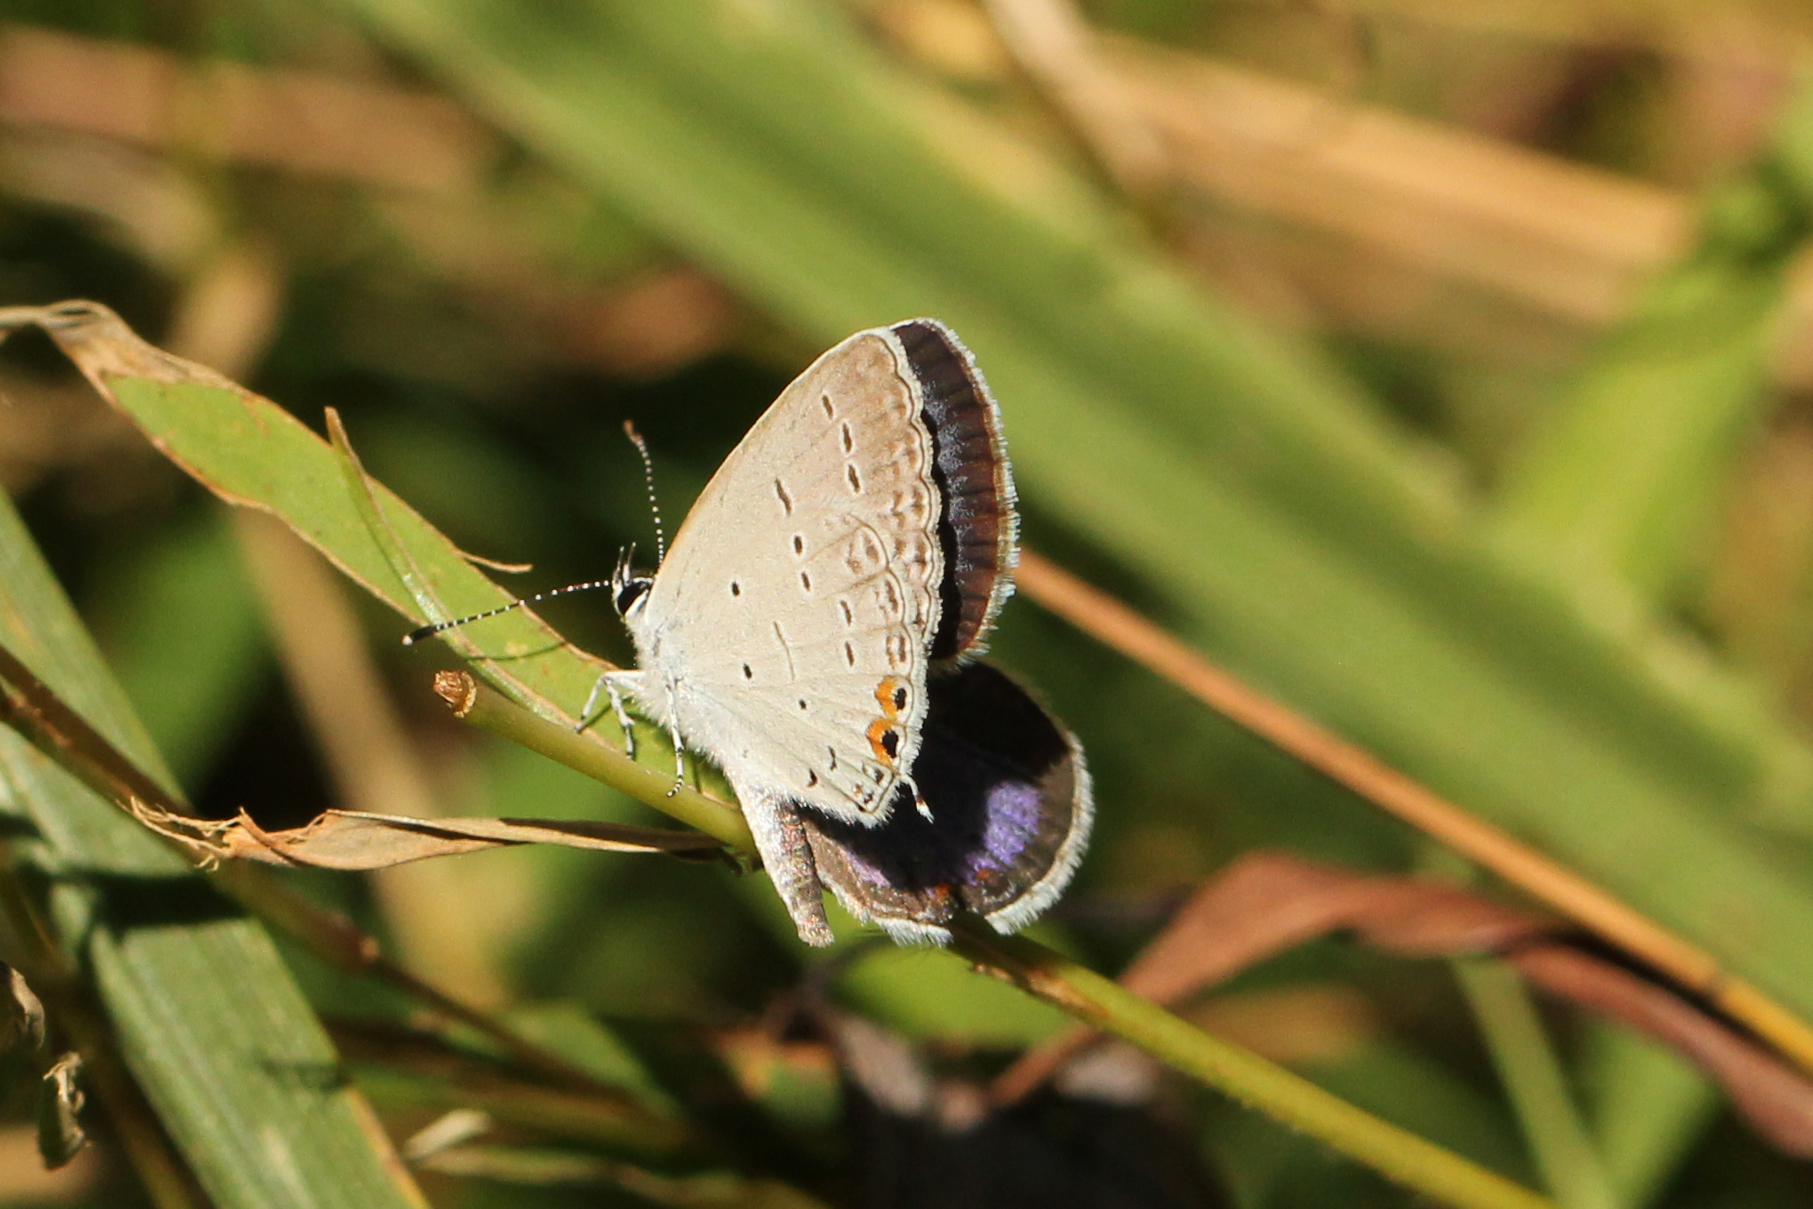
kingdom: Animalia
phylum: Arthropoda
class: Insecta
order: Lepidoptera
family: Lycaenidae
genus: Elkalyce
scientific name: Elkalyce comyntas
